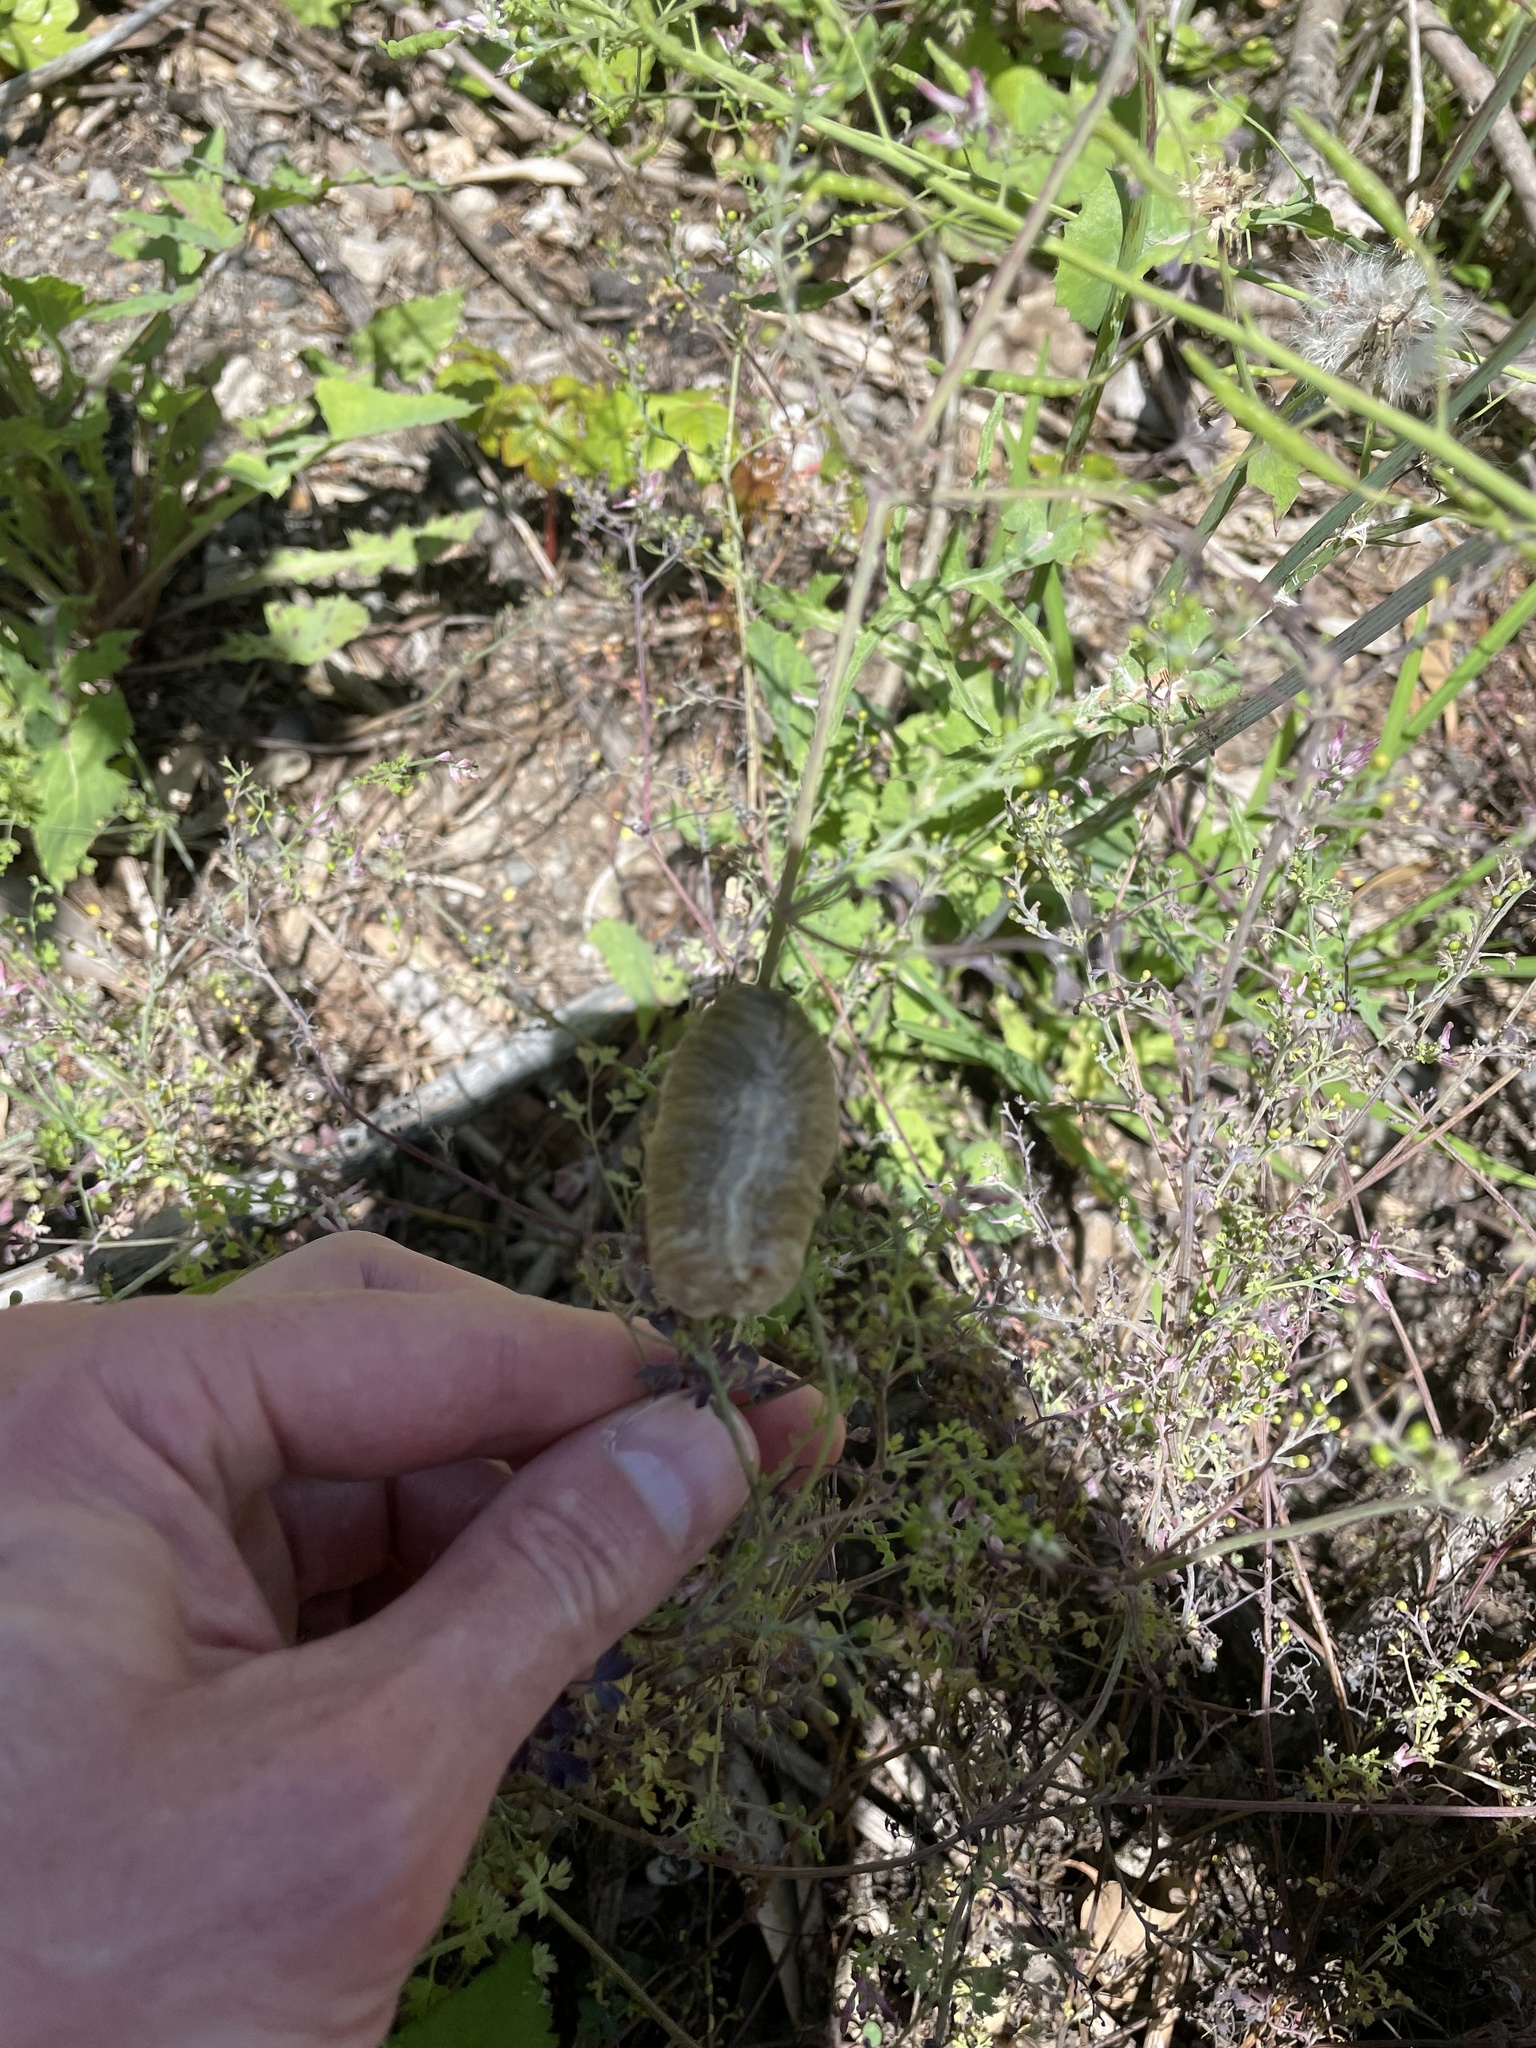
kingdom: Animalia
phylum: Arthropoda
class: Insecta
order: Mantodea
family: Mantidae
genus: Archimantis
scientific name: Archimantis latistyla
